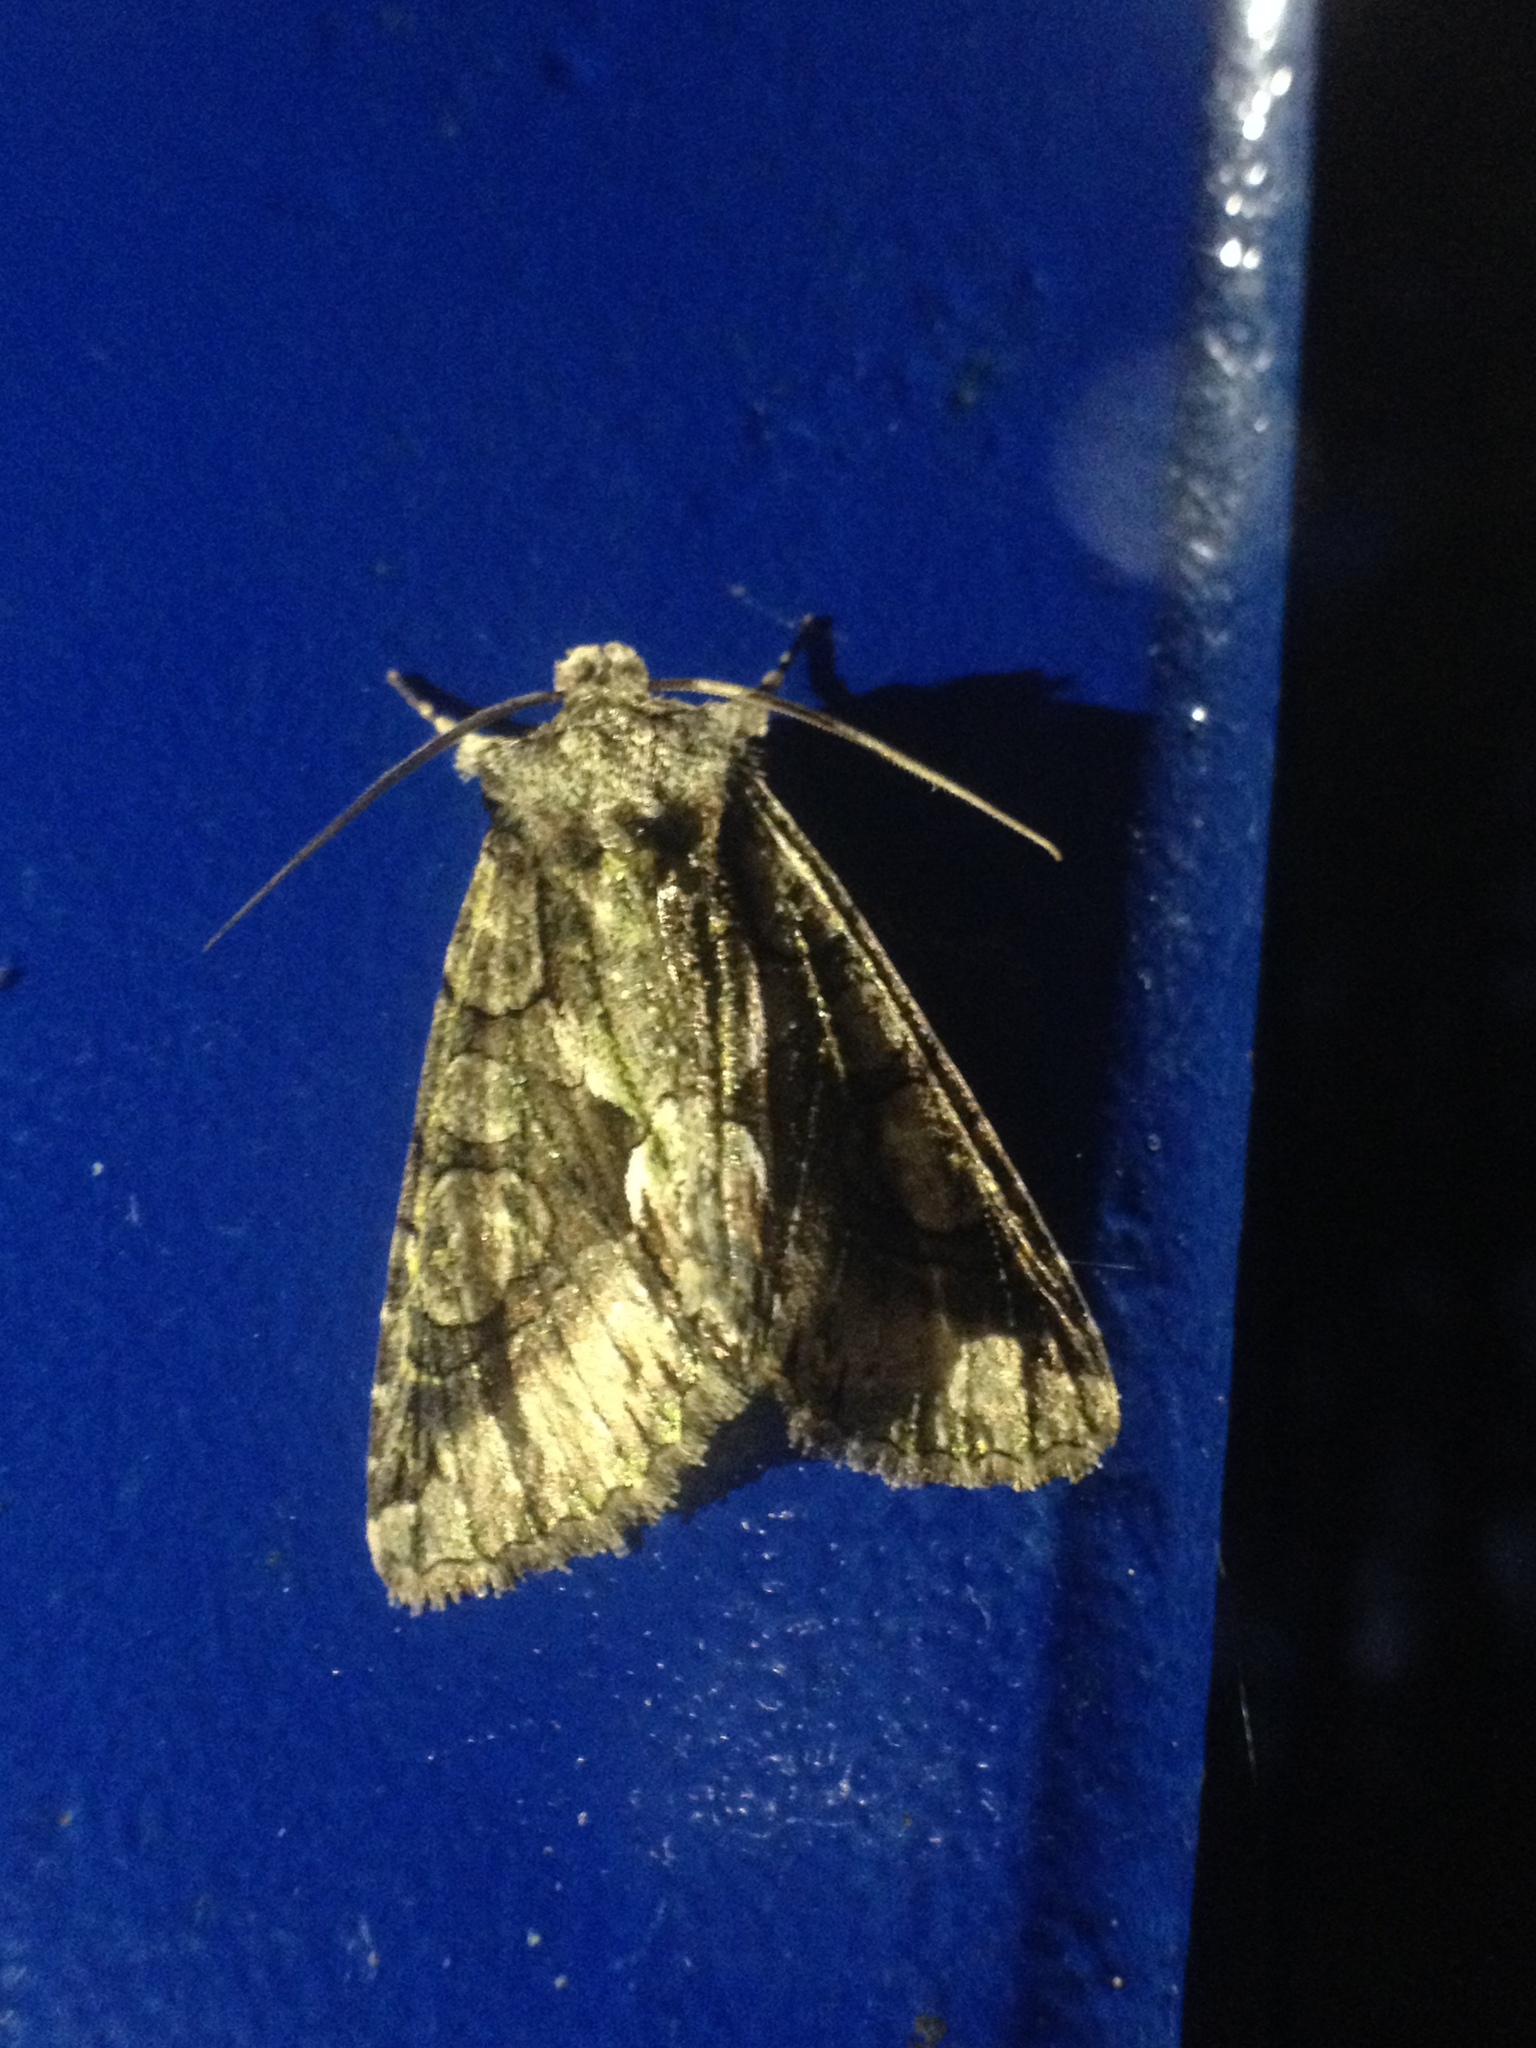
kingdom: Animalia
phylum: Arthropoda
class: Insecta
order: Lepidoptera
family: Noctuidae
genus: Allophyes
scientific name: Allophyes oxyacanthae
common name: Green-brindled crescent
